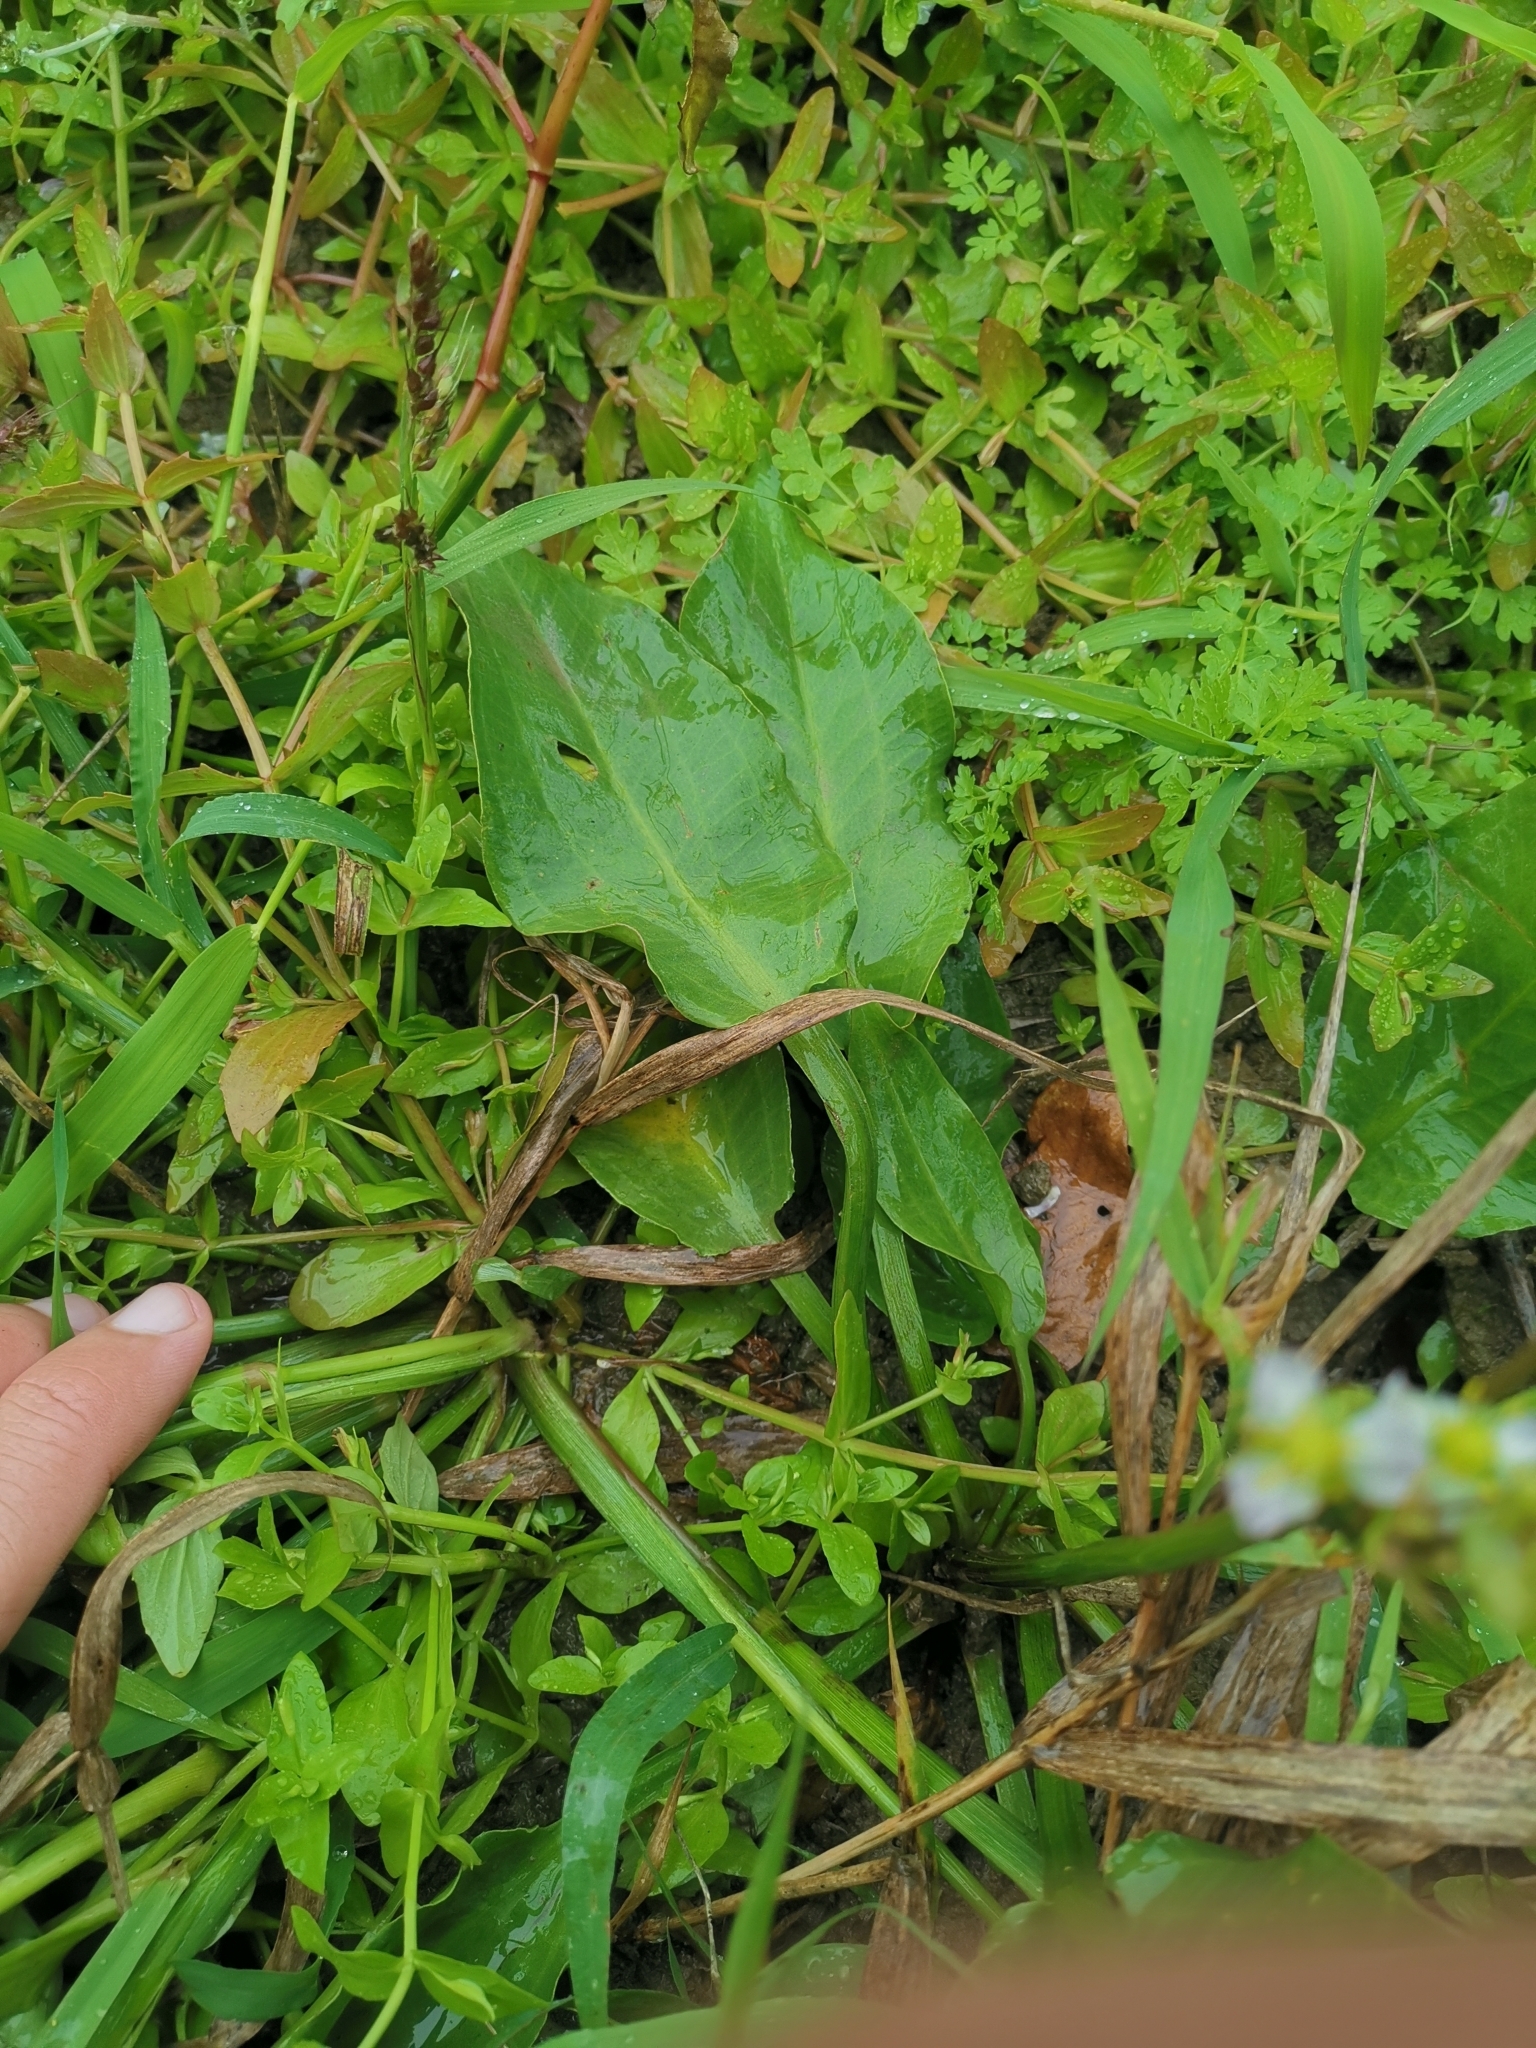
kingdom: Plantae
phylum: Tracheophyta
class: Liliopsida
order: Alismatales
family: Alismataceae
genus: Alisma
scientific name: Alisma plantago-aquatica
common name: Water-plantain
